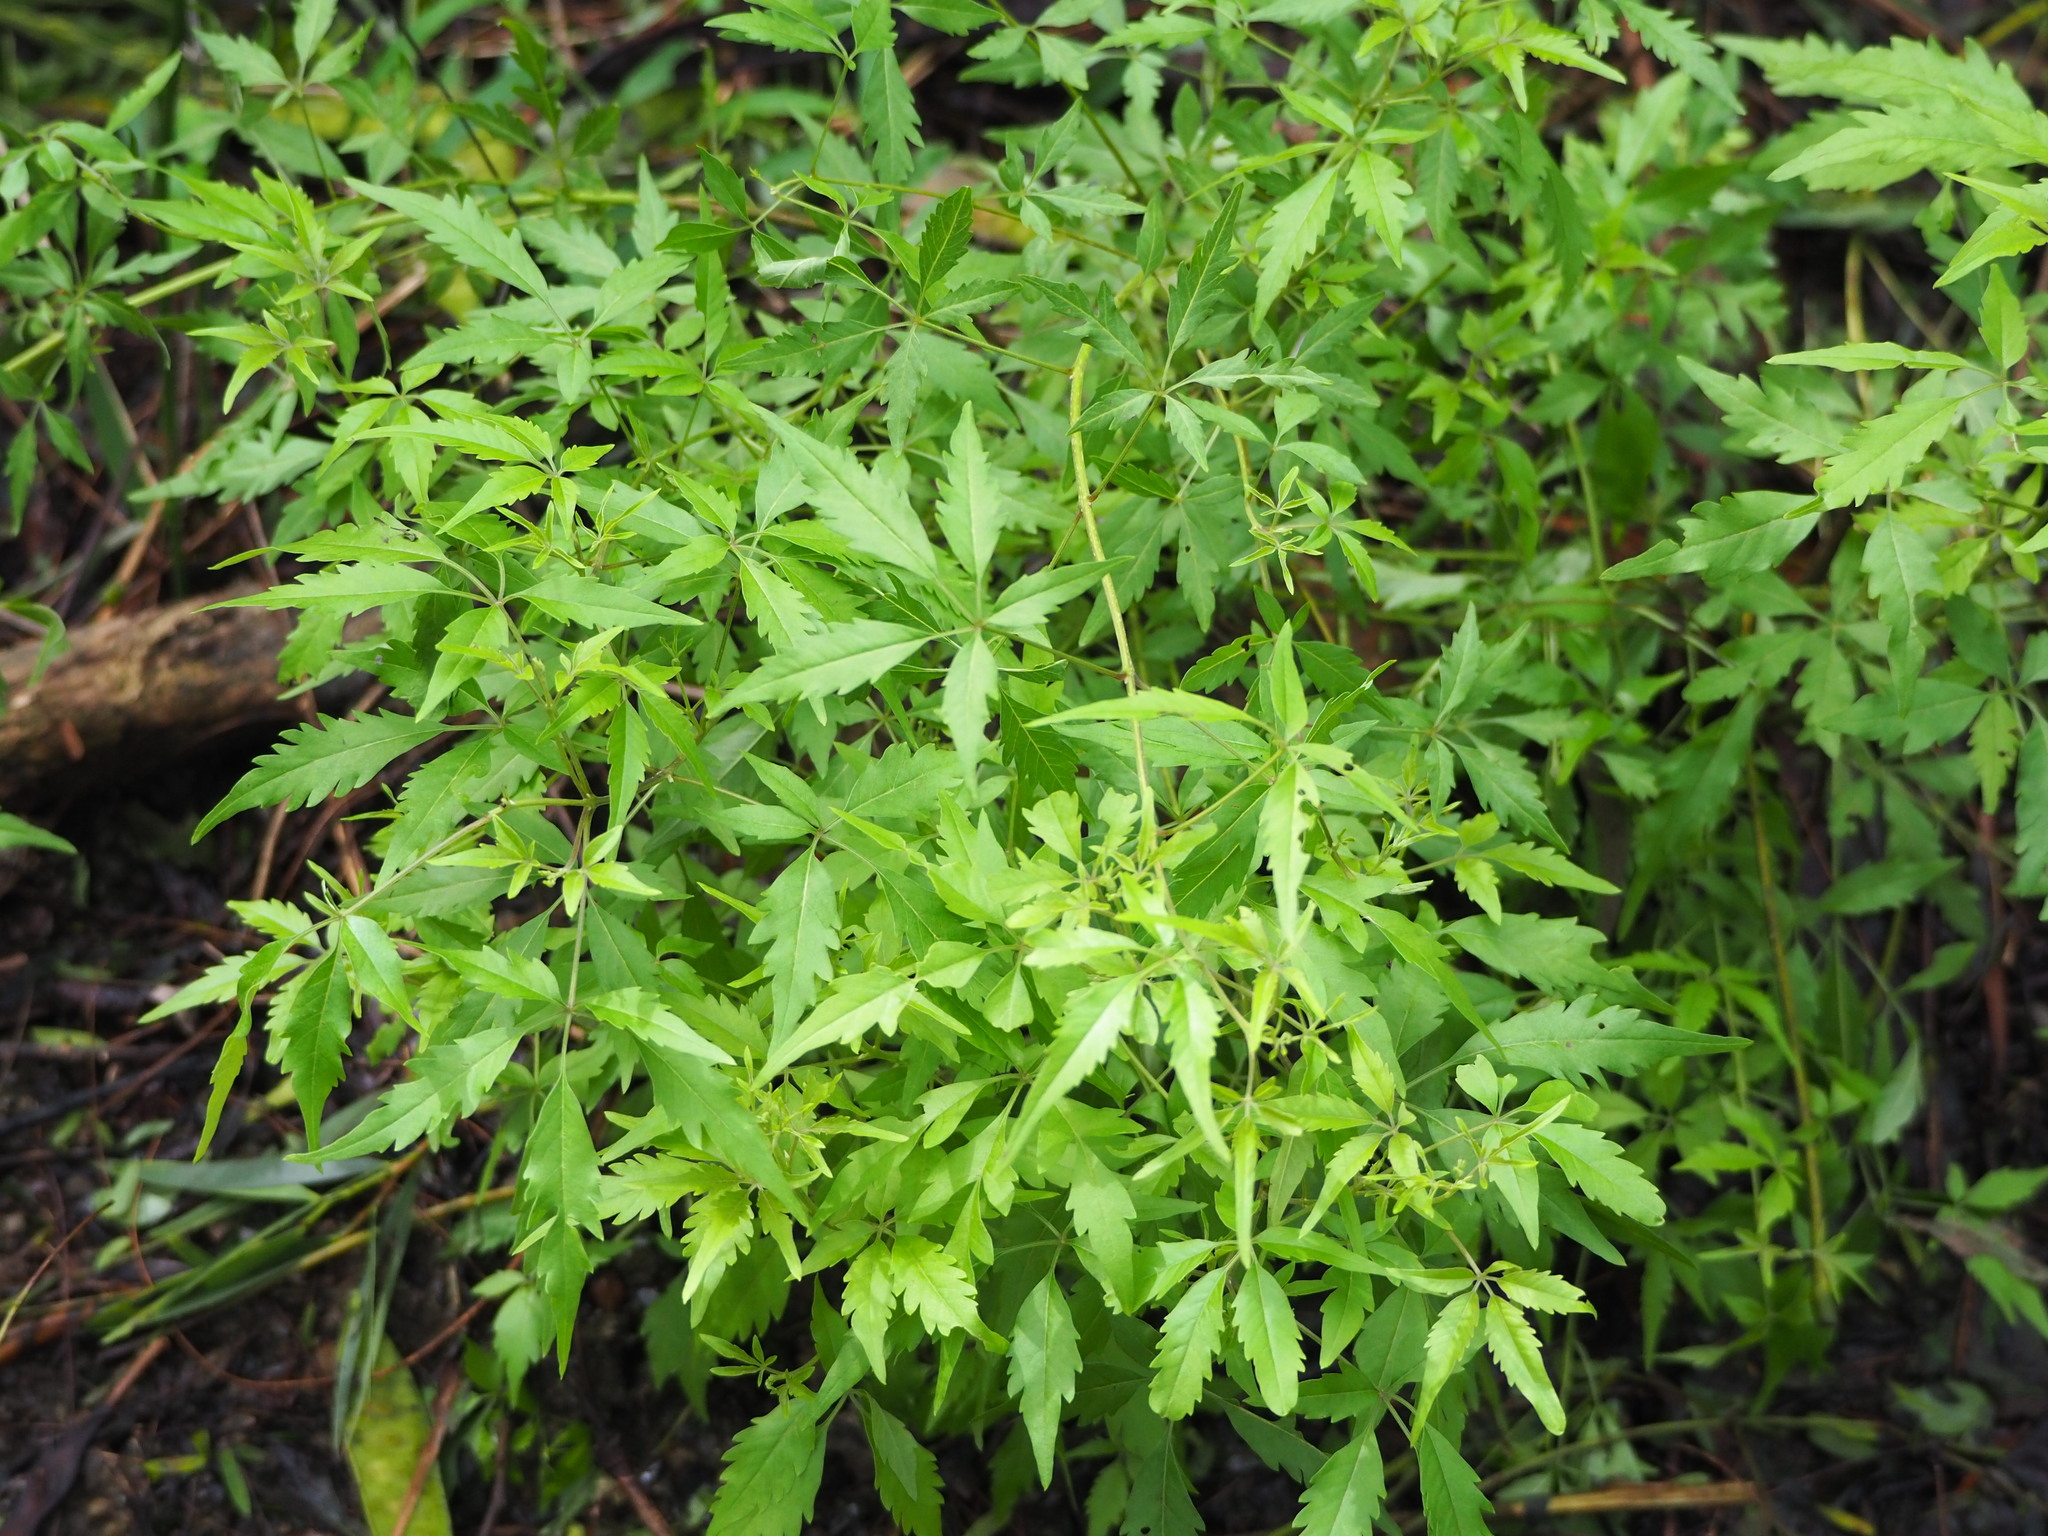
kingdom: Plantae
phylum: Tracheophyta
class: Magnoliopsida
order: Lamiales
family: Lamiaceae
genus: Vitex
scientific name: Vitex negundo
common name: Chinese chastetree
